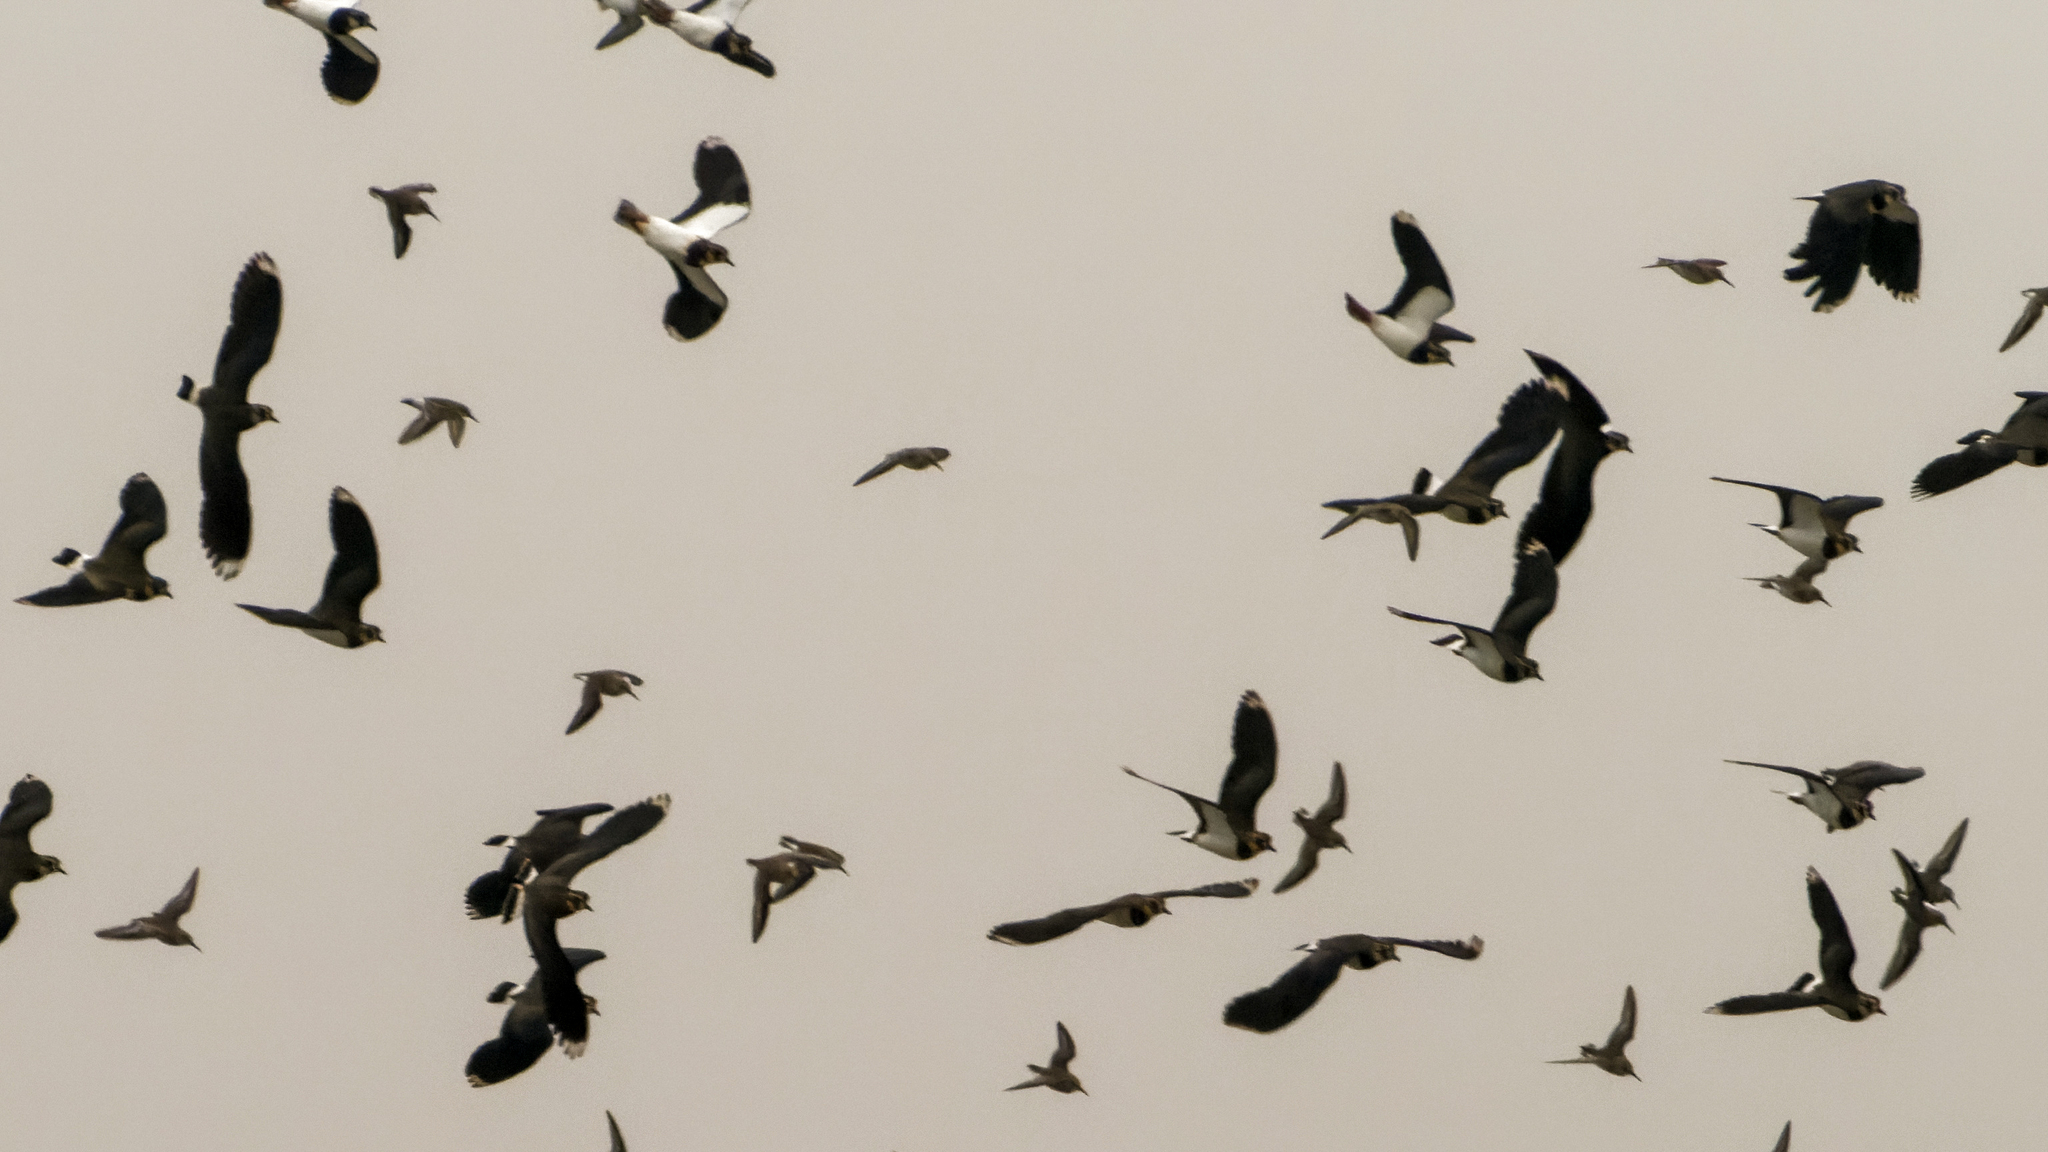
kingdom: Animalia
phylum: Chordata
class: Aves
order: Charadriiformes
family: Charadriidae
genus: Vanellus
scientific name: Vanellus vanellus
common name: Northern lapwing
